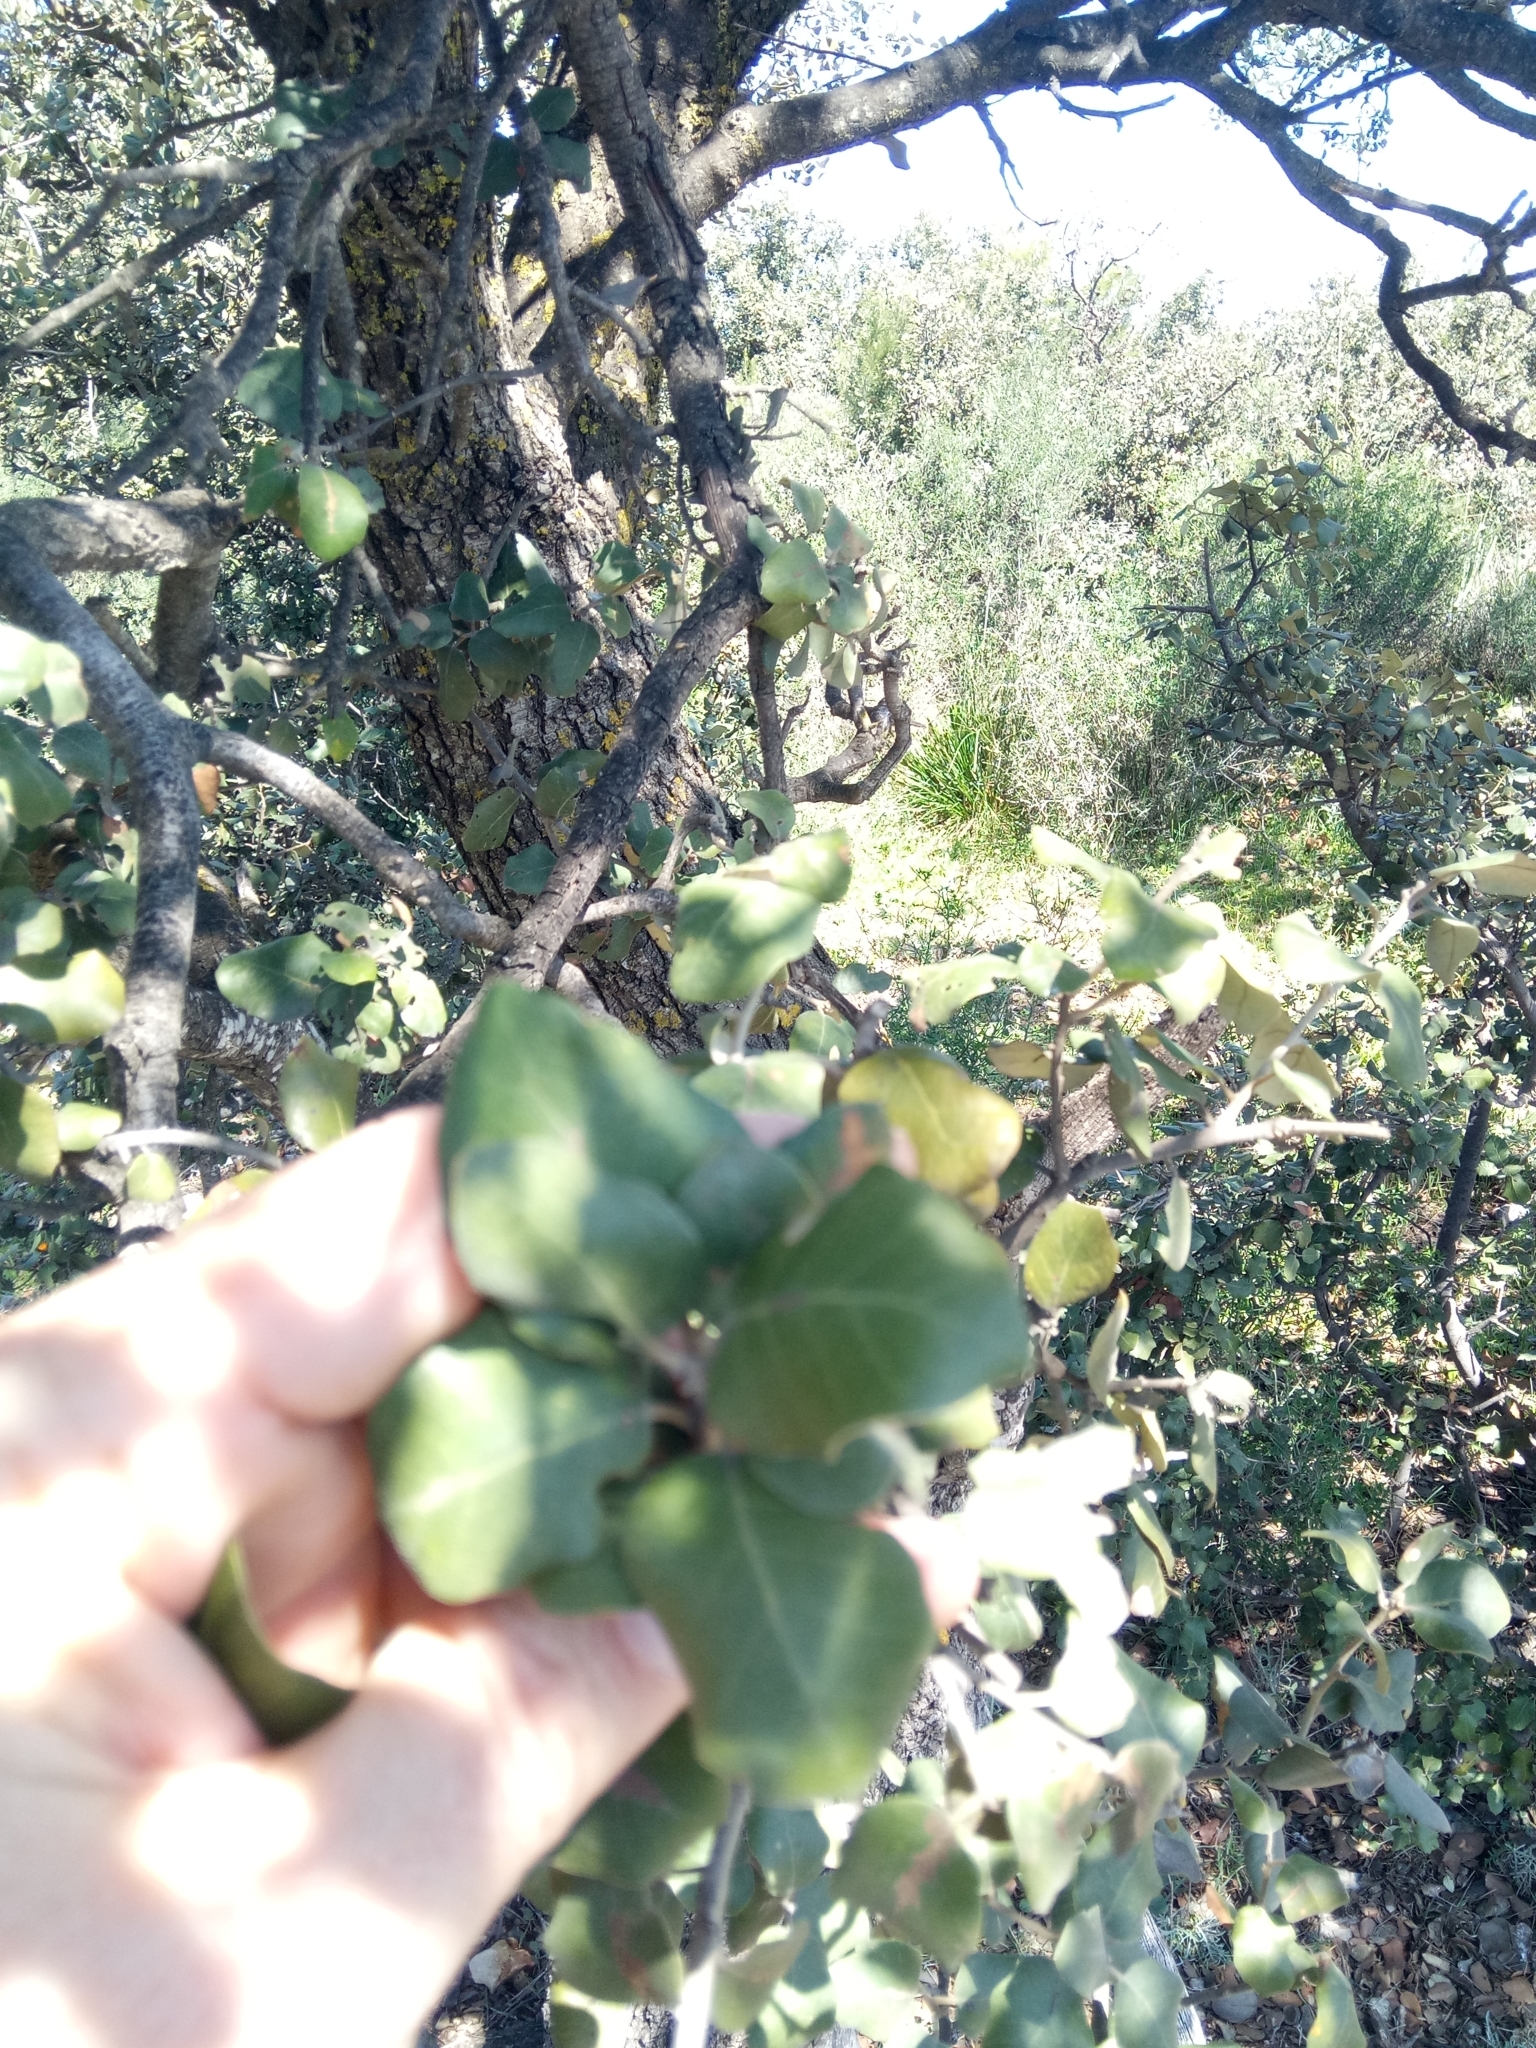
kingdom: Plantae
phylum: Tracheophyta
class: Magnoliopsida
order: Fagales
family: Fagaceae
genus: Quercus
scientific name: Quercus rotundifolia
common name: Holm oak
